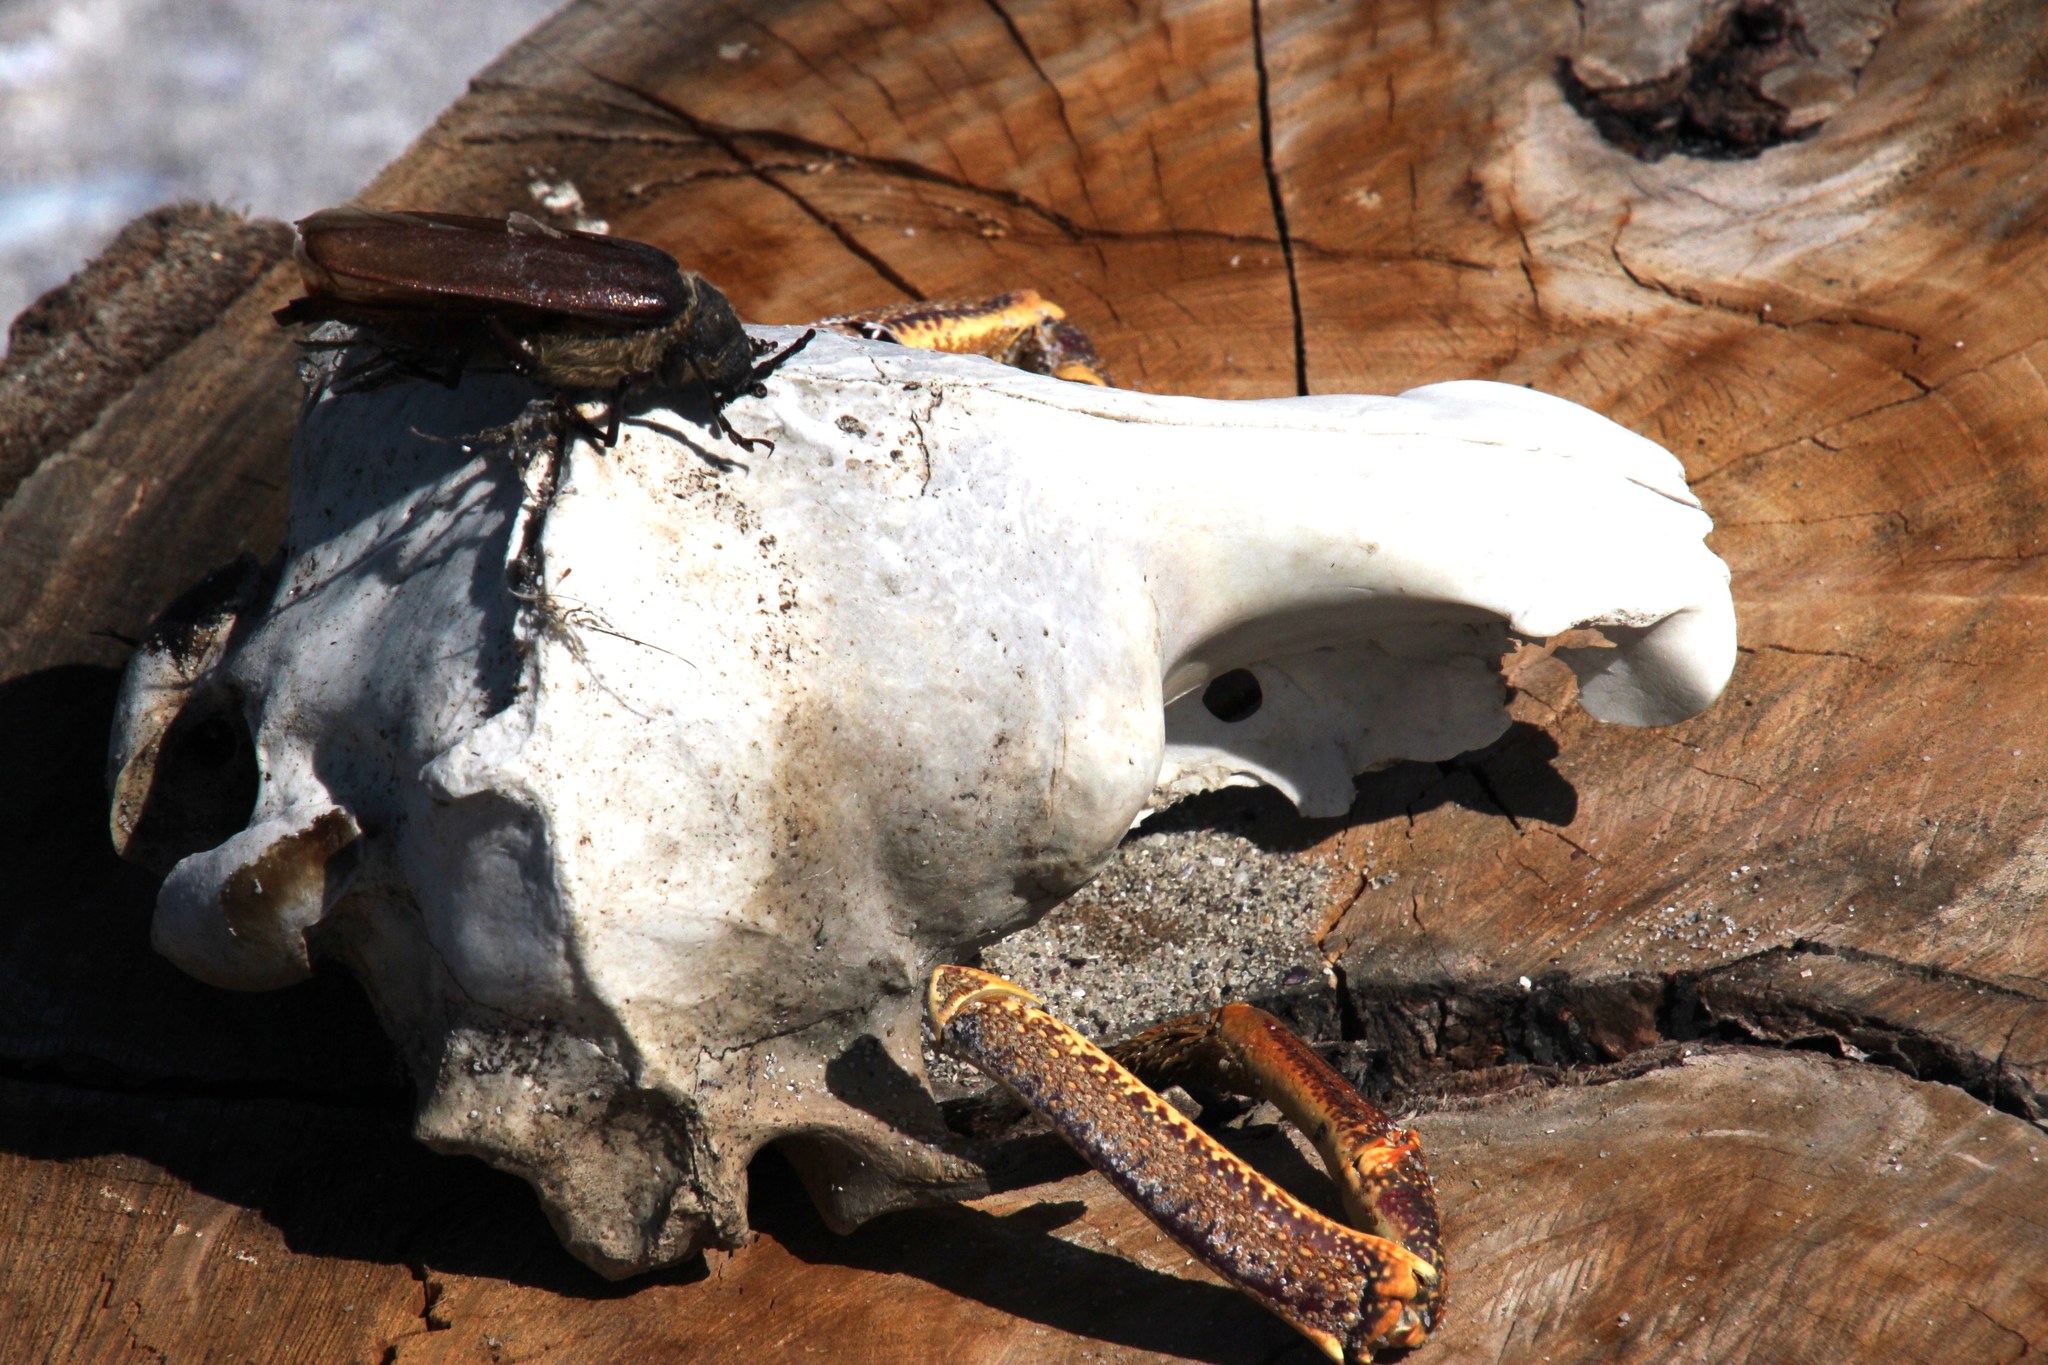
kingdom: Animalia
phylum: Chordata
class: Mammalia
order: Carnivora
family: Otariidae
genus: Arctocephalus
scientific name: Arctocephalus pusillus
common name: Brown fur seal
